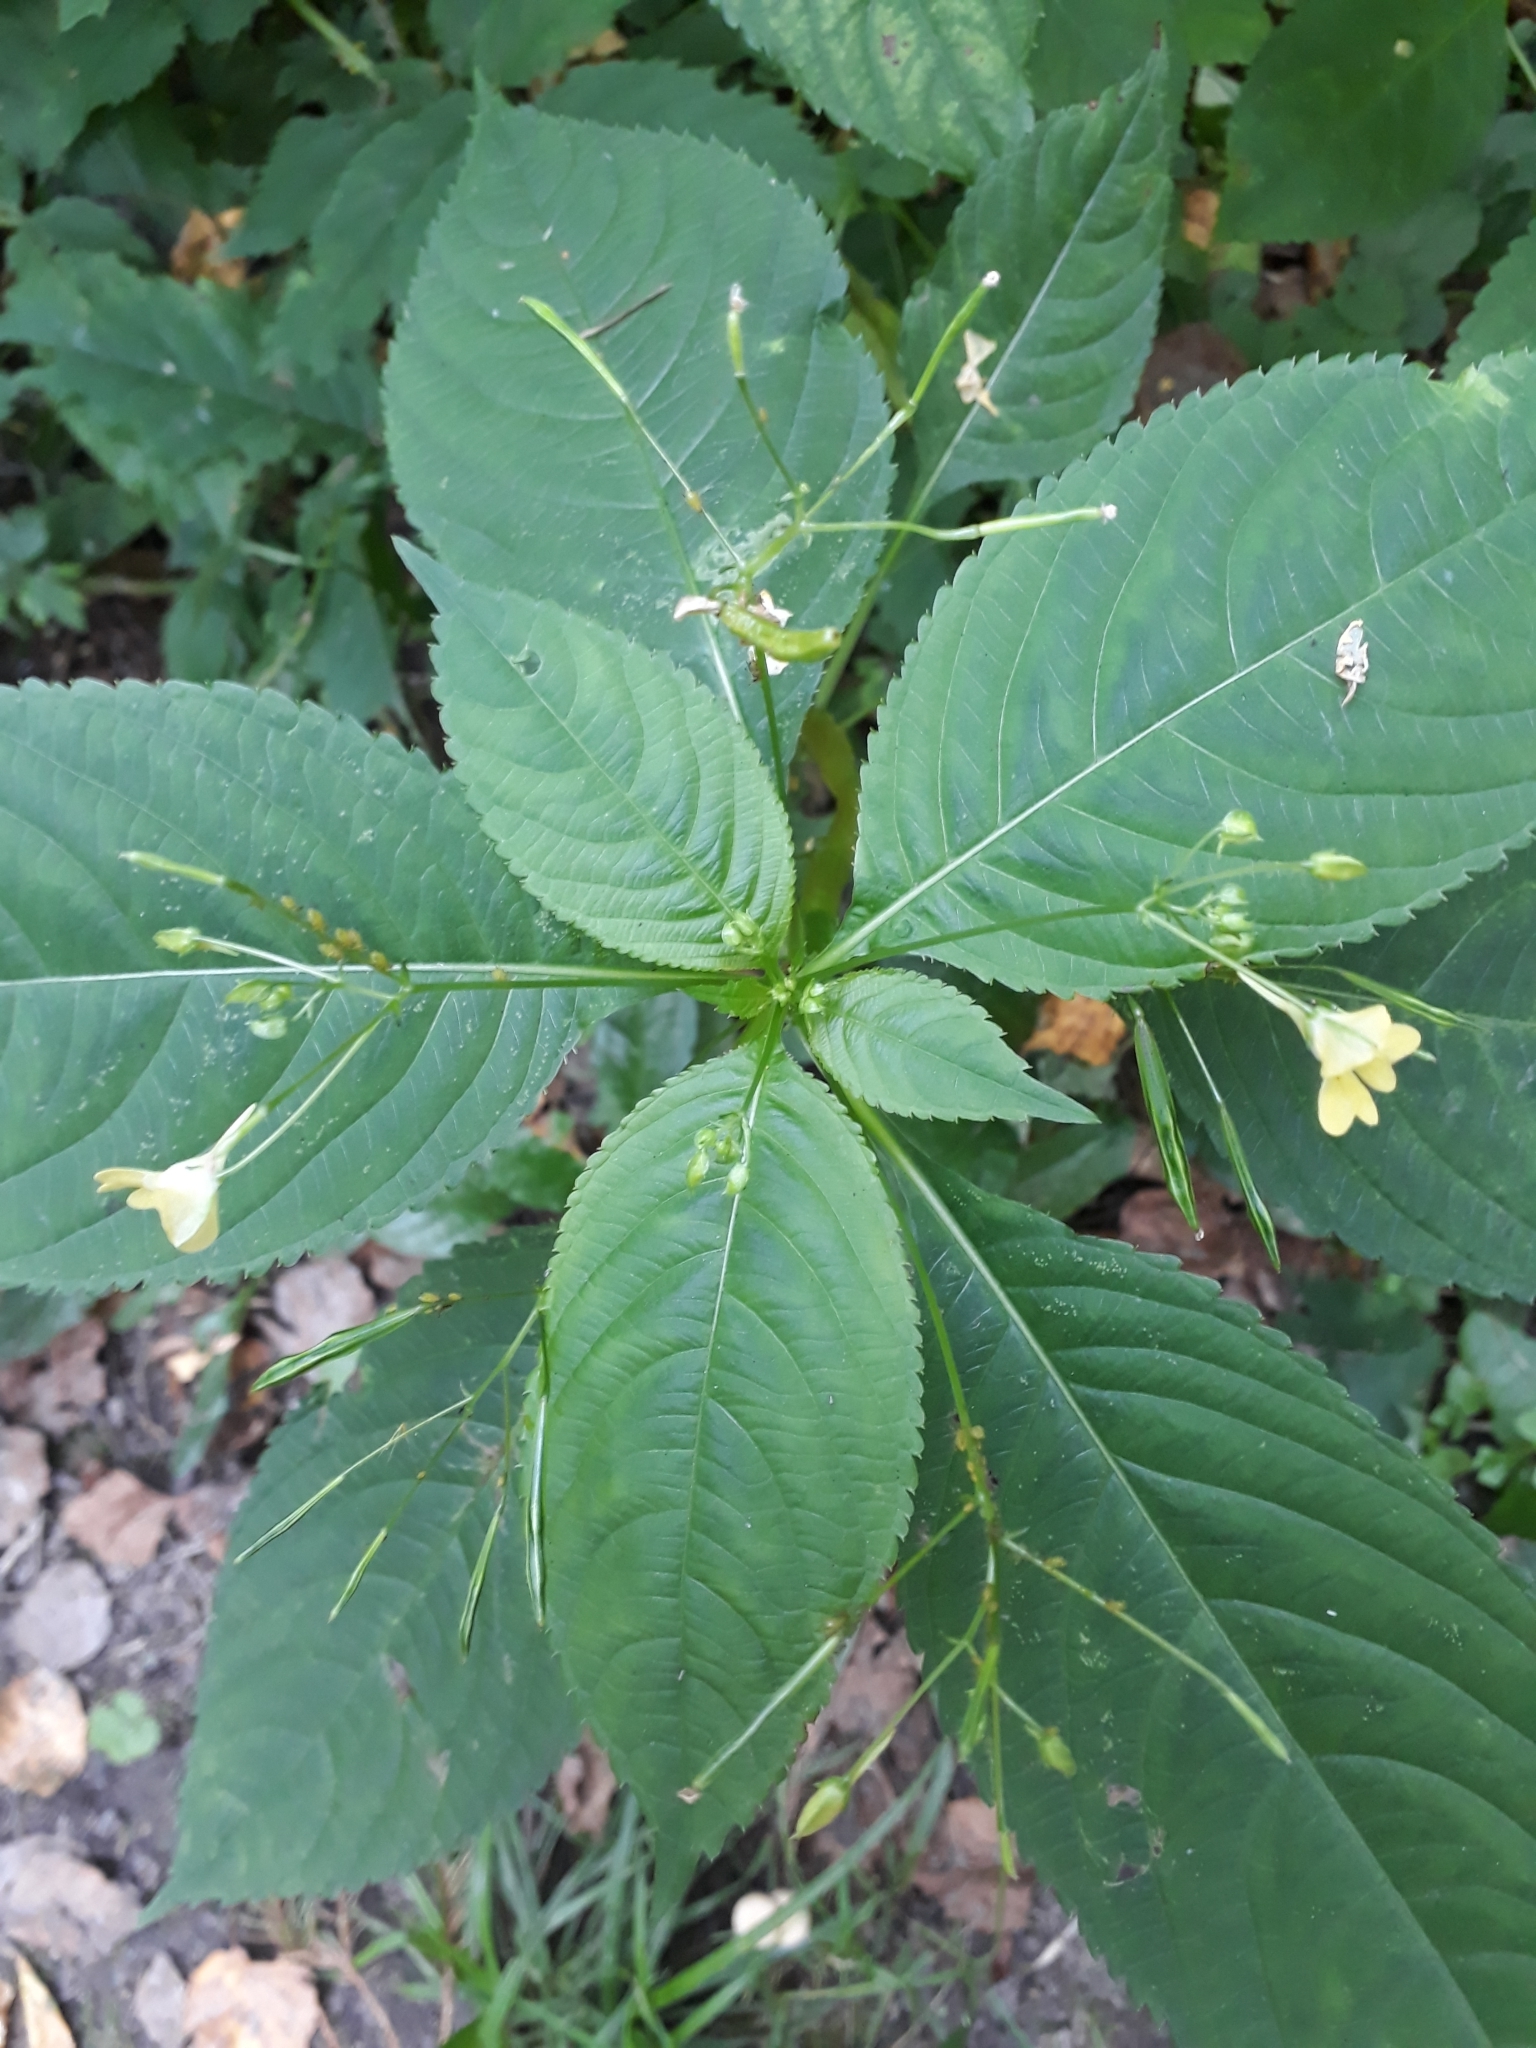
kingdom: Plantae
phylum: Tracheophyta
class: Magnoliopsida
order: Ericales
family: Balsaminaceae
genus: Impatiens
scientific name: Impatiens parviflora
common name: Small balsam
